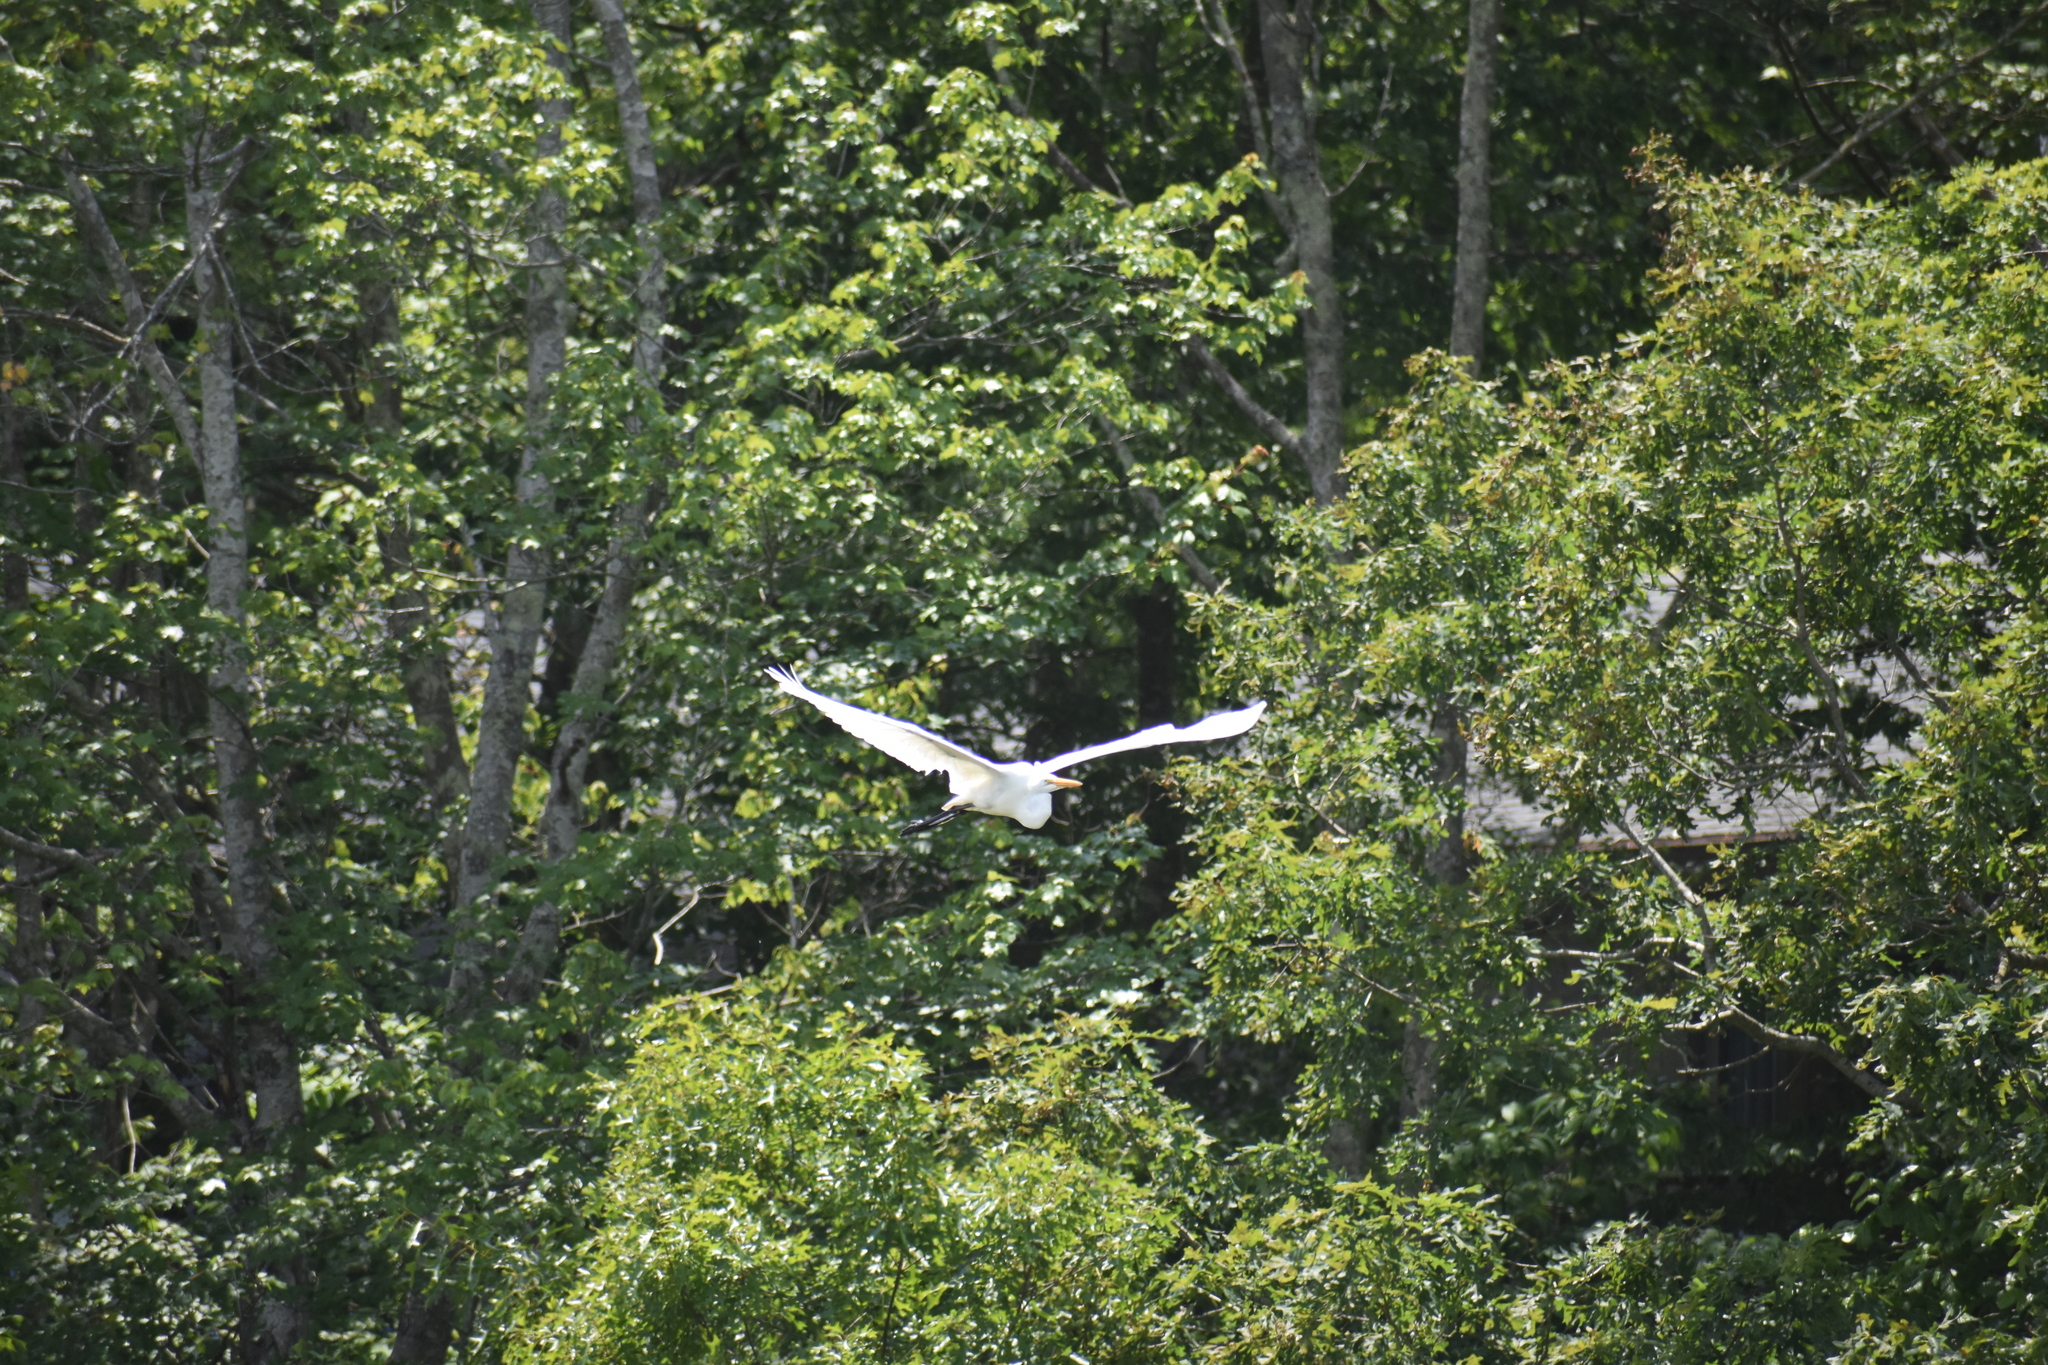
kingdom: Animalia
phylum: Chordata
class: Aves
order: Pelecaniformes
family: Ardeidae
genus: Ardea
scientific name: Ardea alba
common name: Great egret
